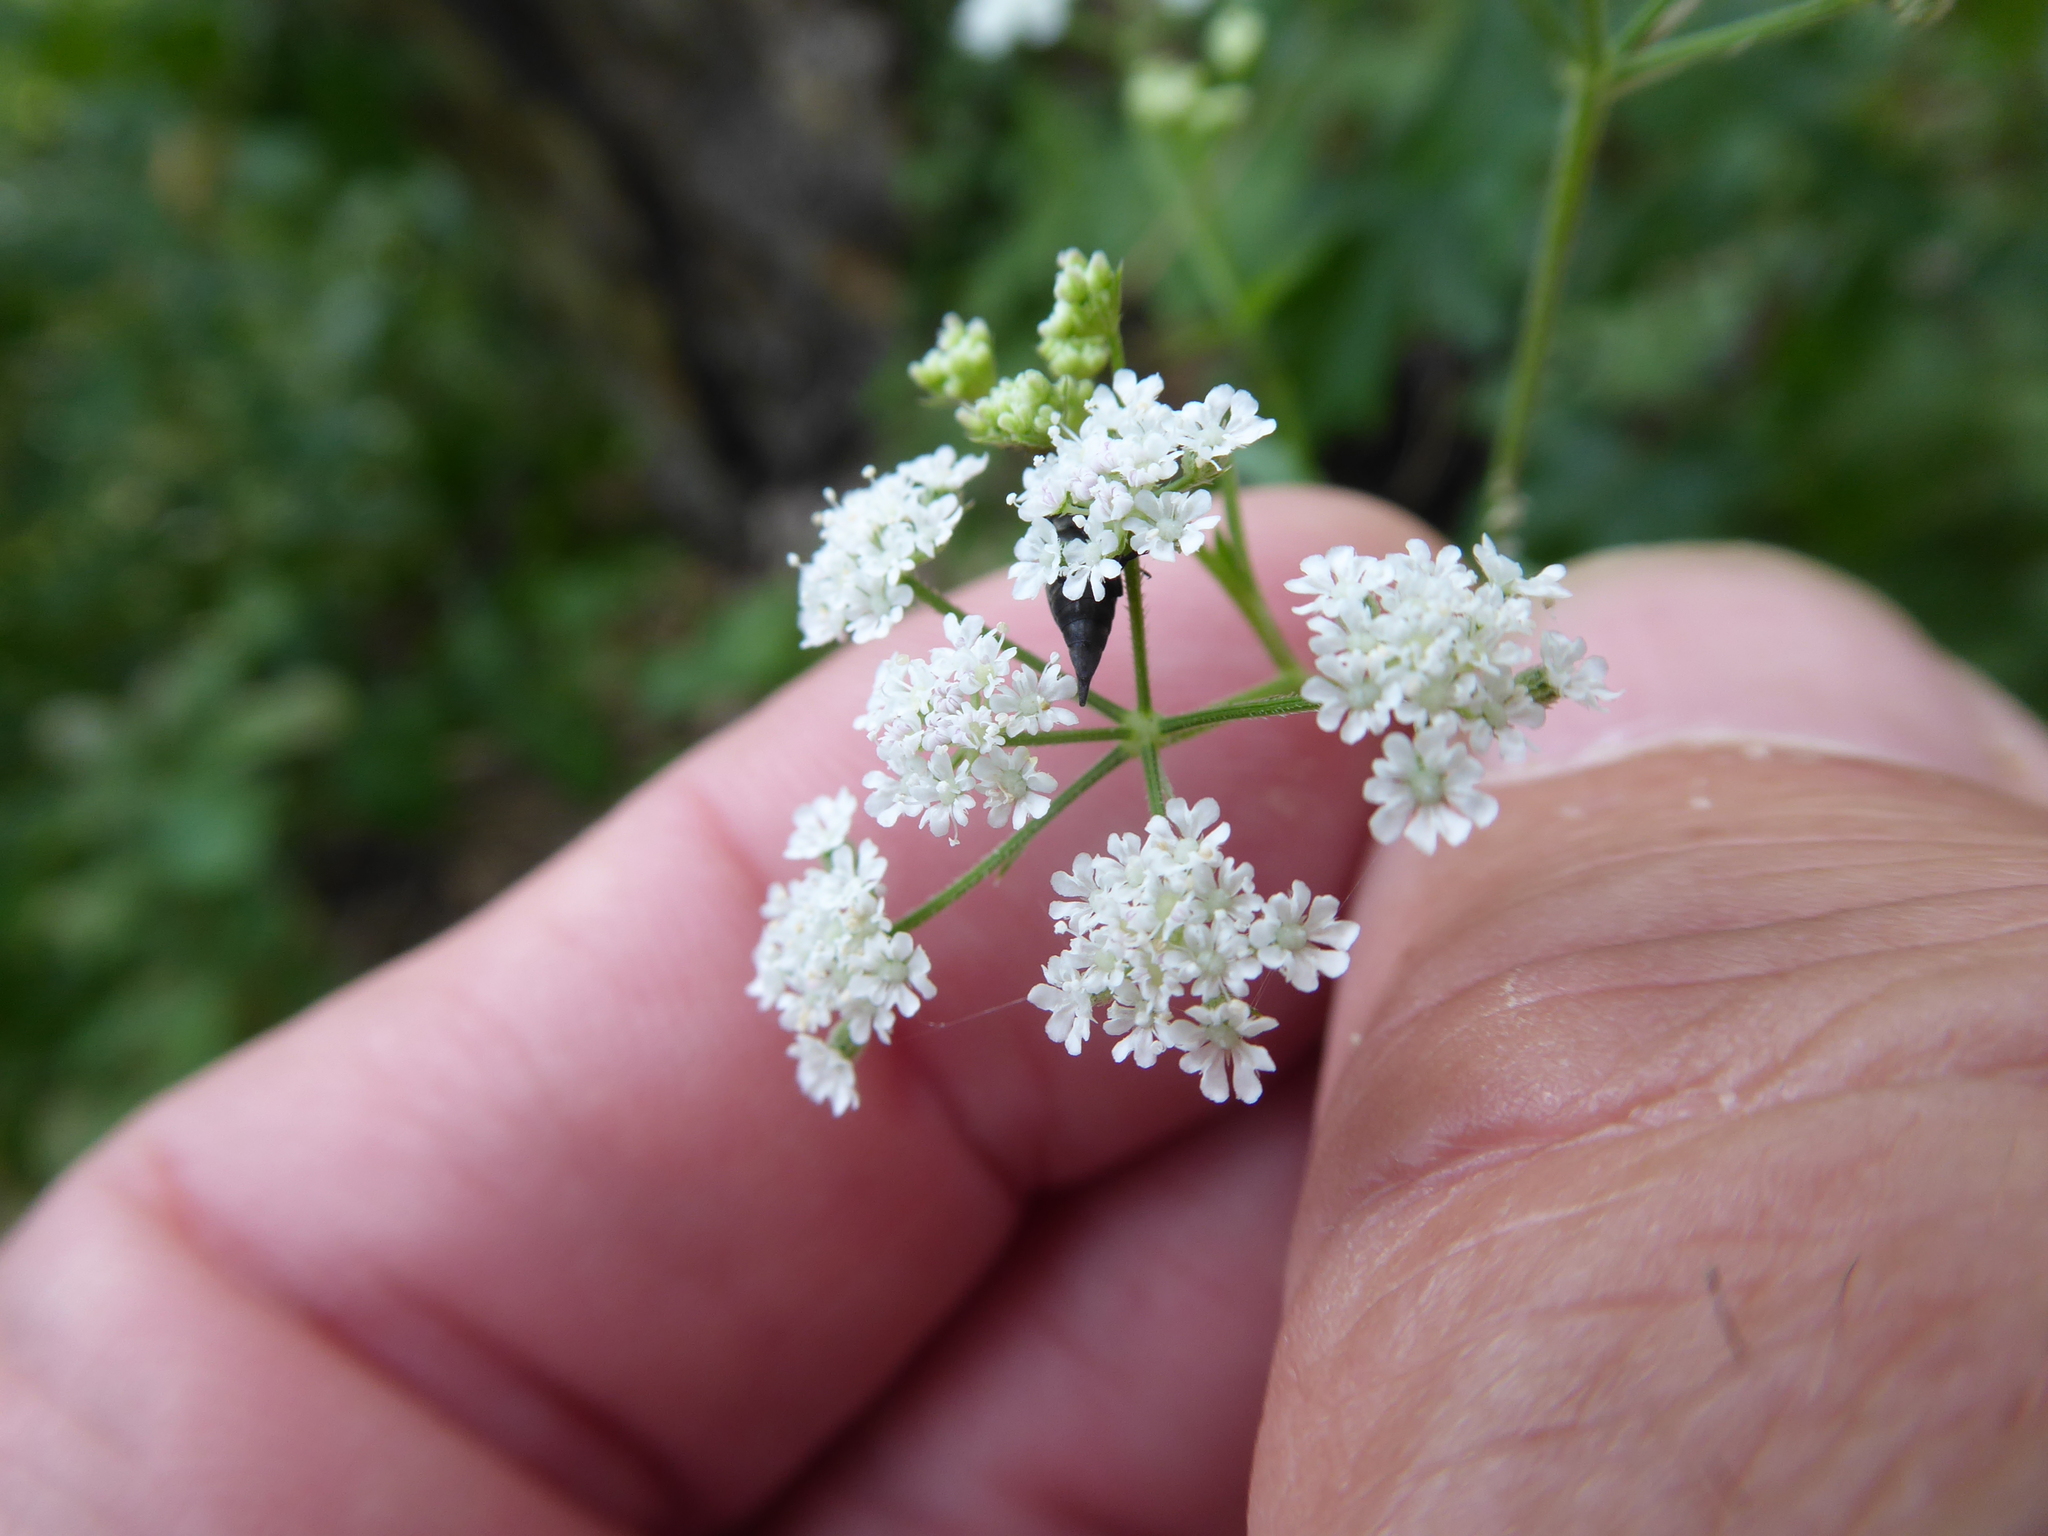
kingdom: Plantae
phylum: Tracheophyta
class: Magnoliopsida
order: Apiales
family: Apiaceae
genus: Torilis
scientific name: Torilis japonica
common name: Upright hedge-parsley
